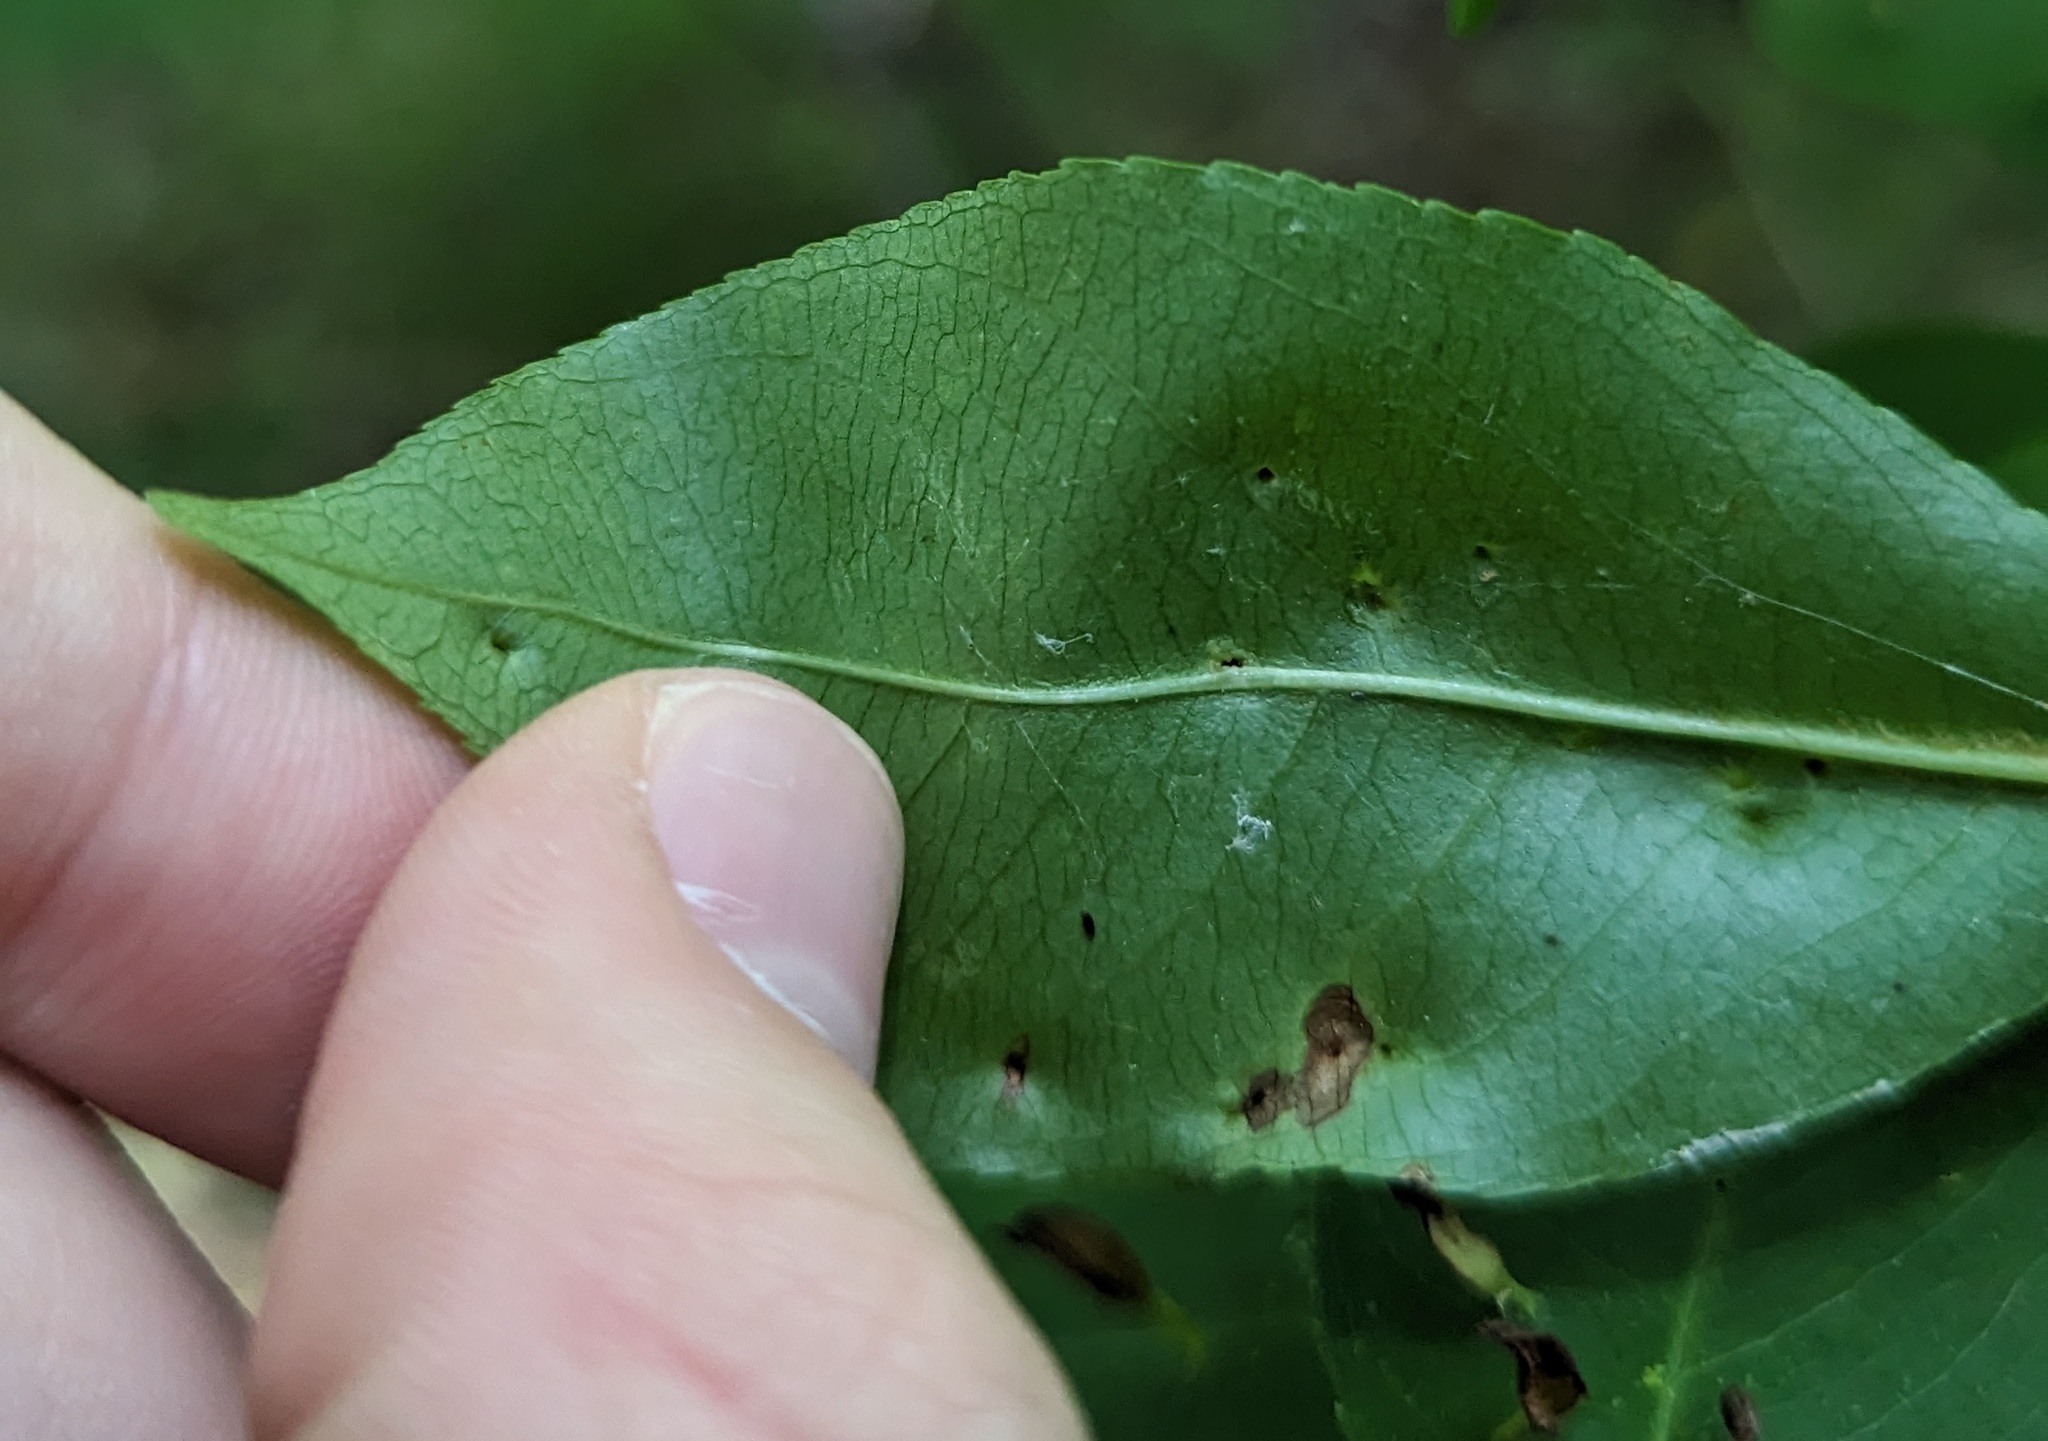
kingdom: Animalia
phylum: Arthropoda
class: Arachnida
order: Trombidiformes
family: Eriophyidae
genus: Eriophyes
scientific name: Eriophyes
